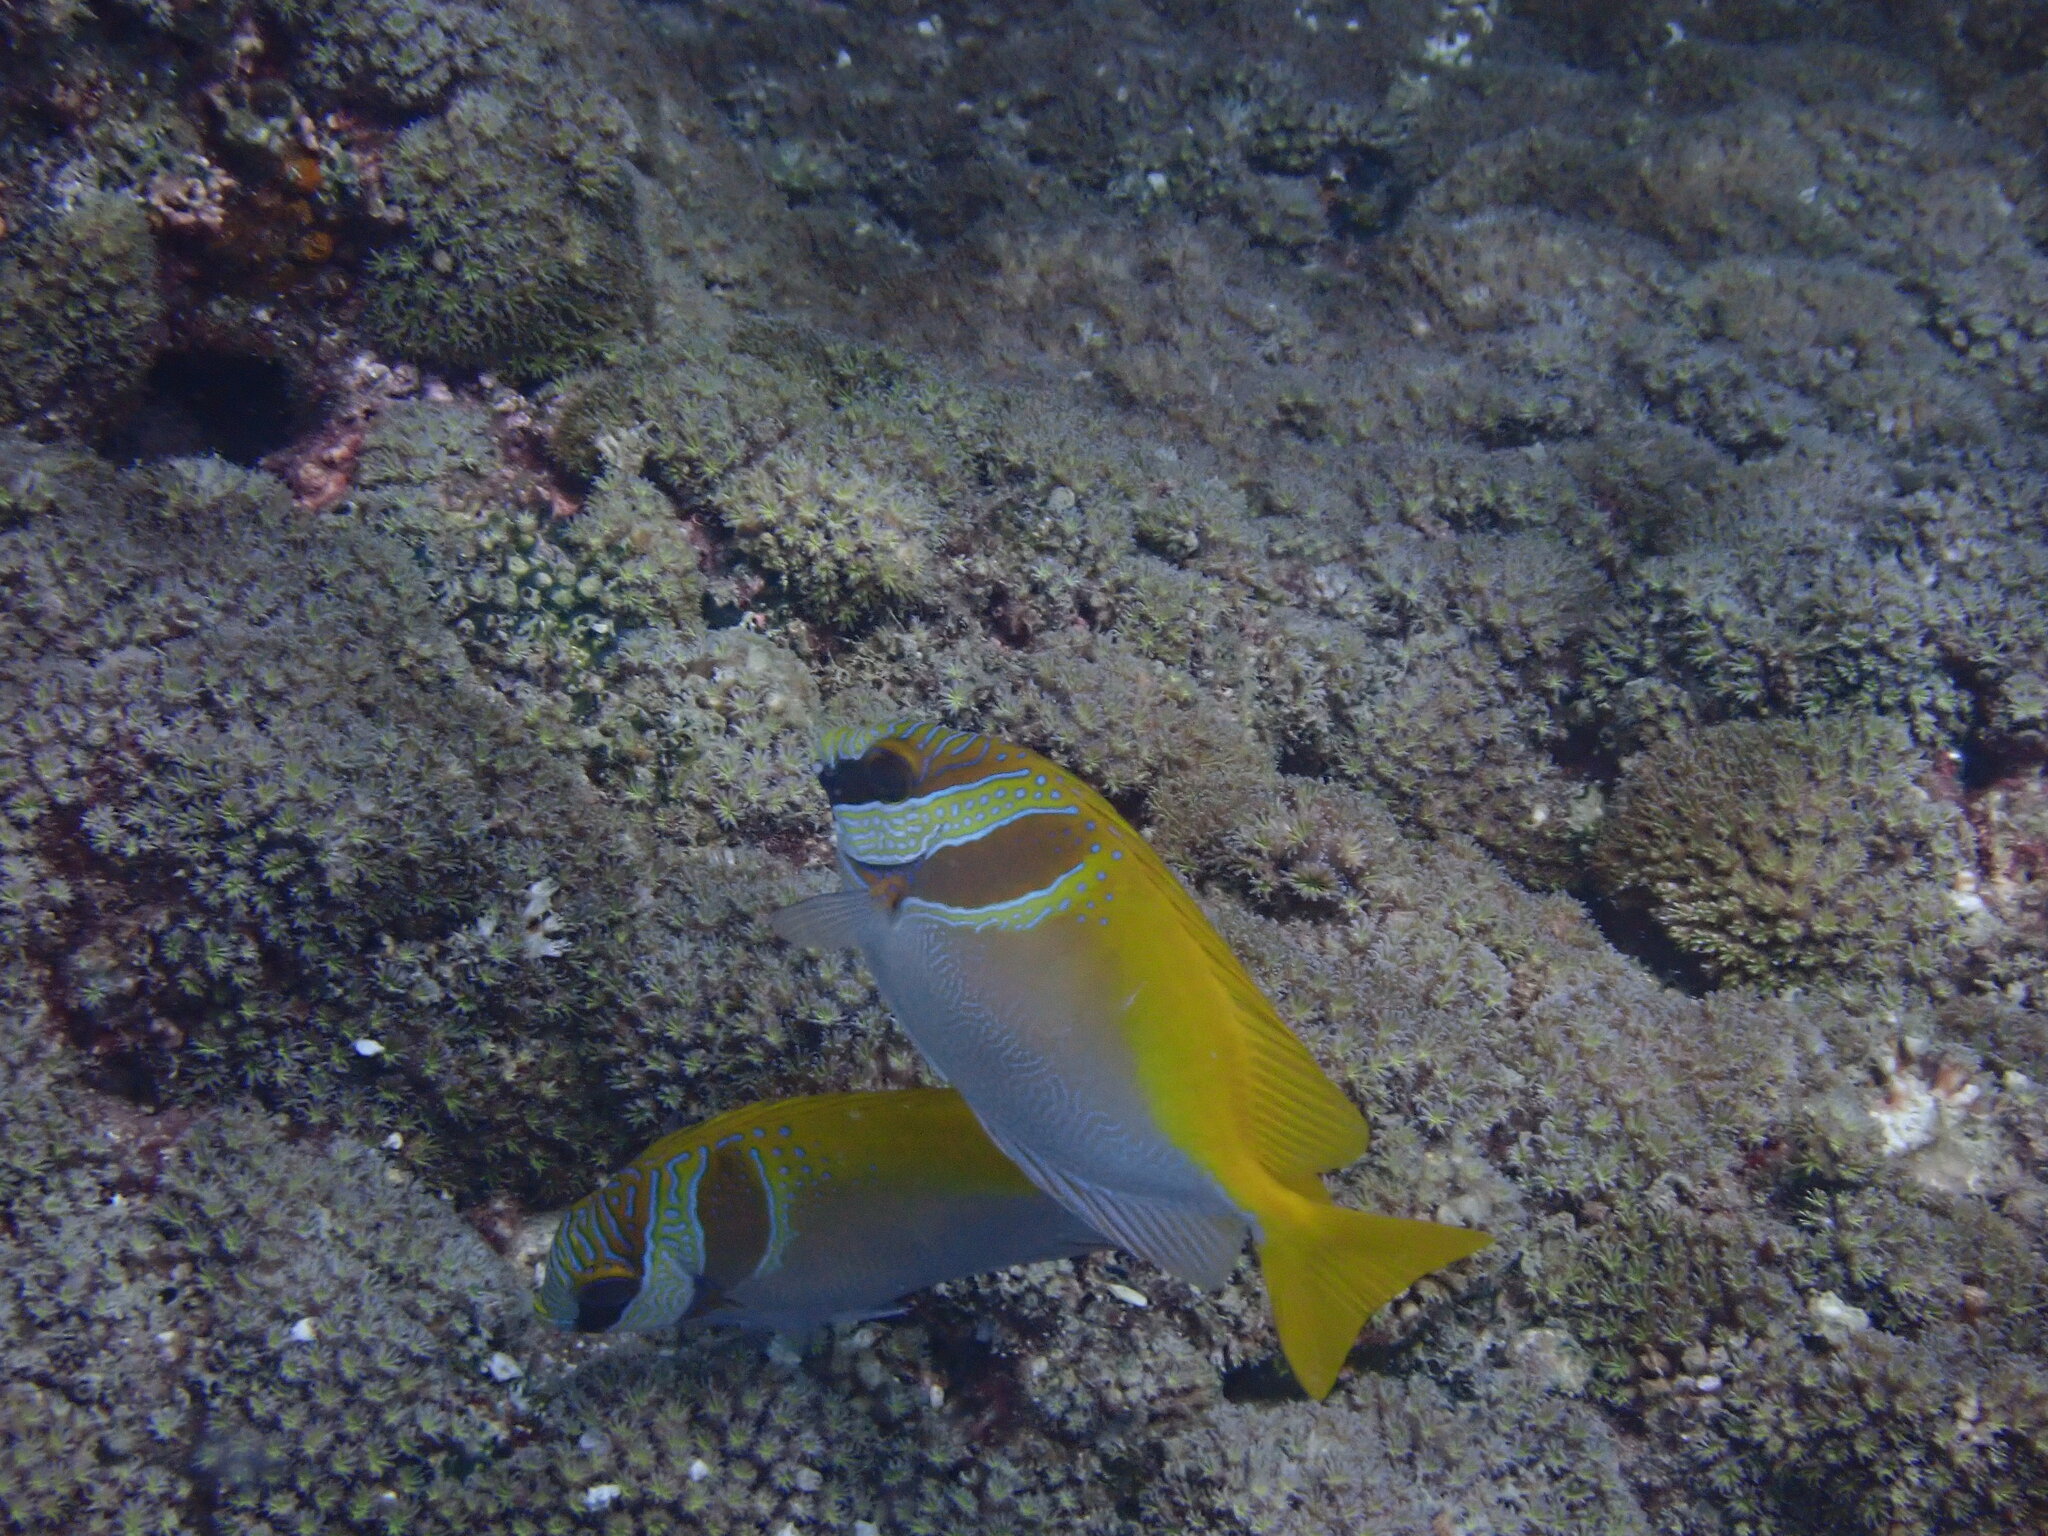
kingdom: Animalia
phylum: Chordata
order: Perciformes
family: Siganidae
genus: Siganus
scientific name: Siganus virgatus
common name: Barhead spinefoot
